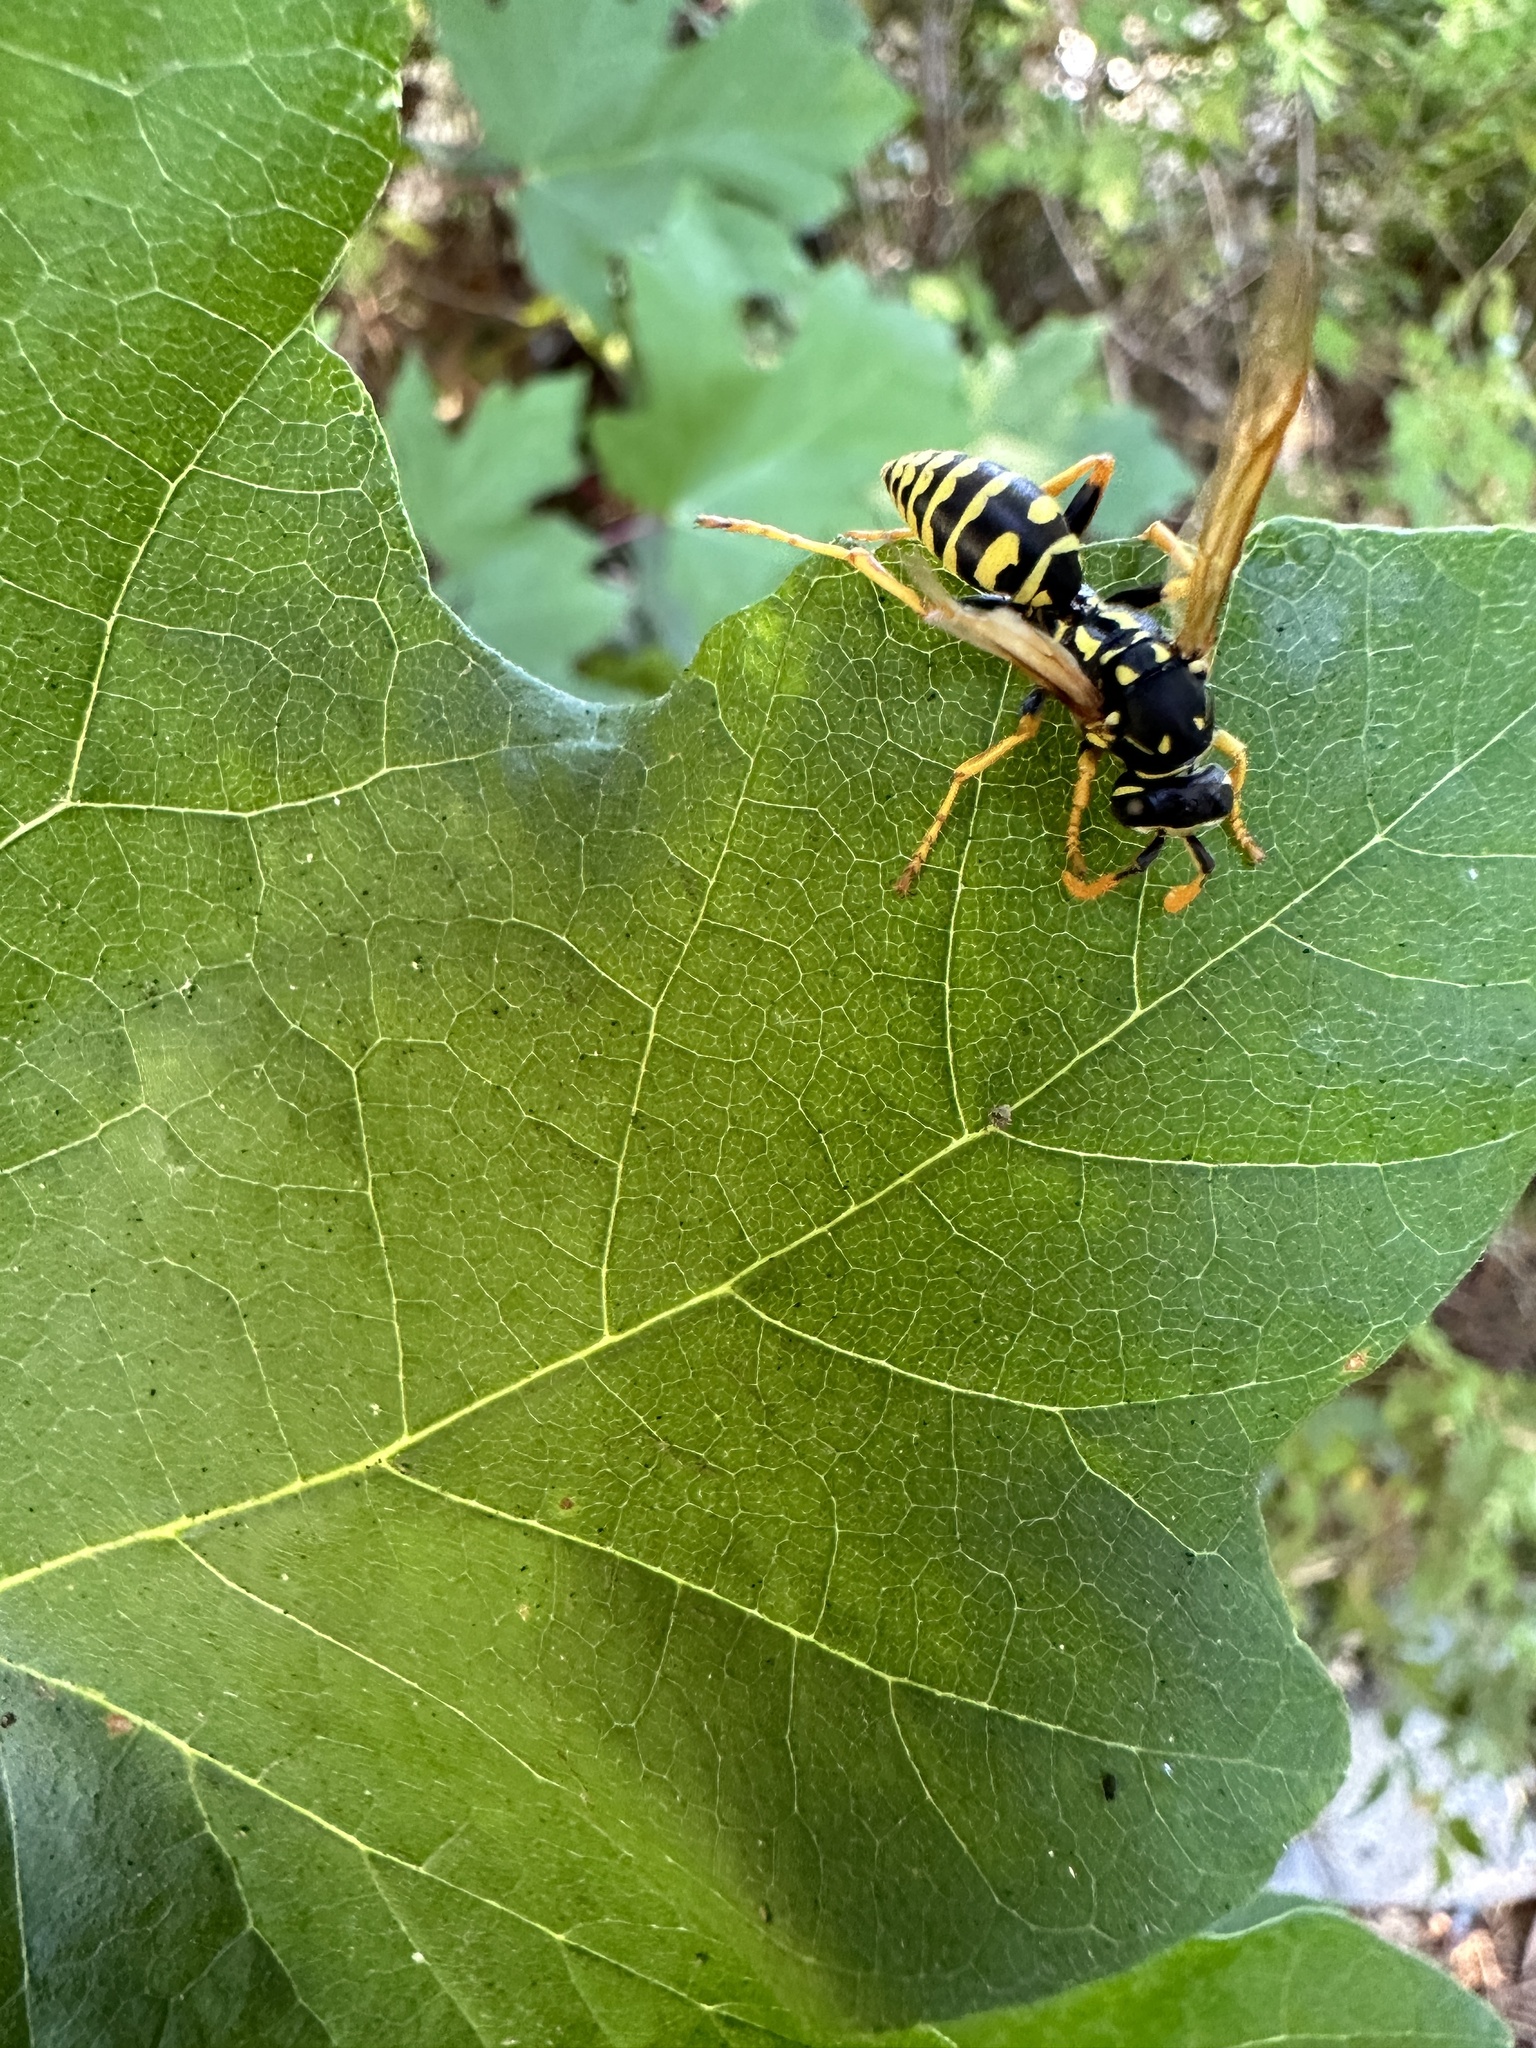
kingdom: Animalia
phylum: Arthropoda
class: Insecta
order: Hymenoptera
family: Eumenidae
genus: Polistes
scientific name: Polistes dominula
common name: Paper wasp
